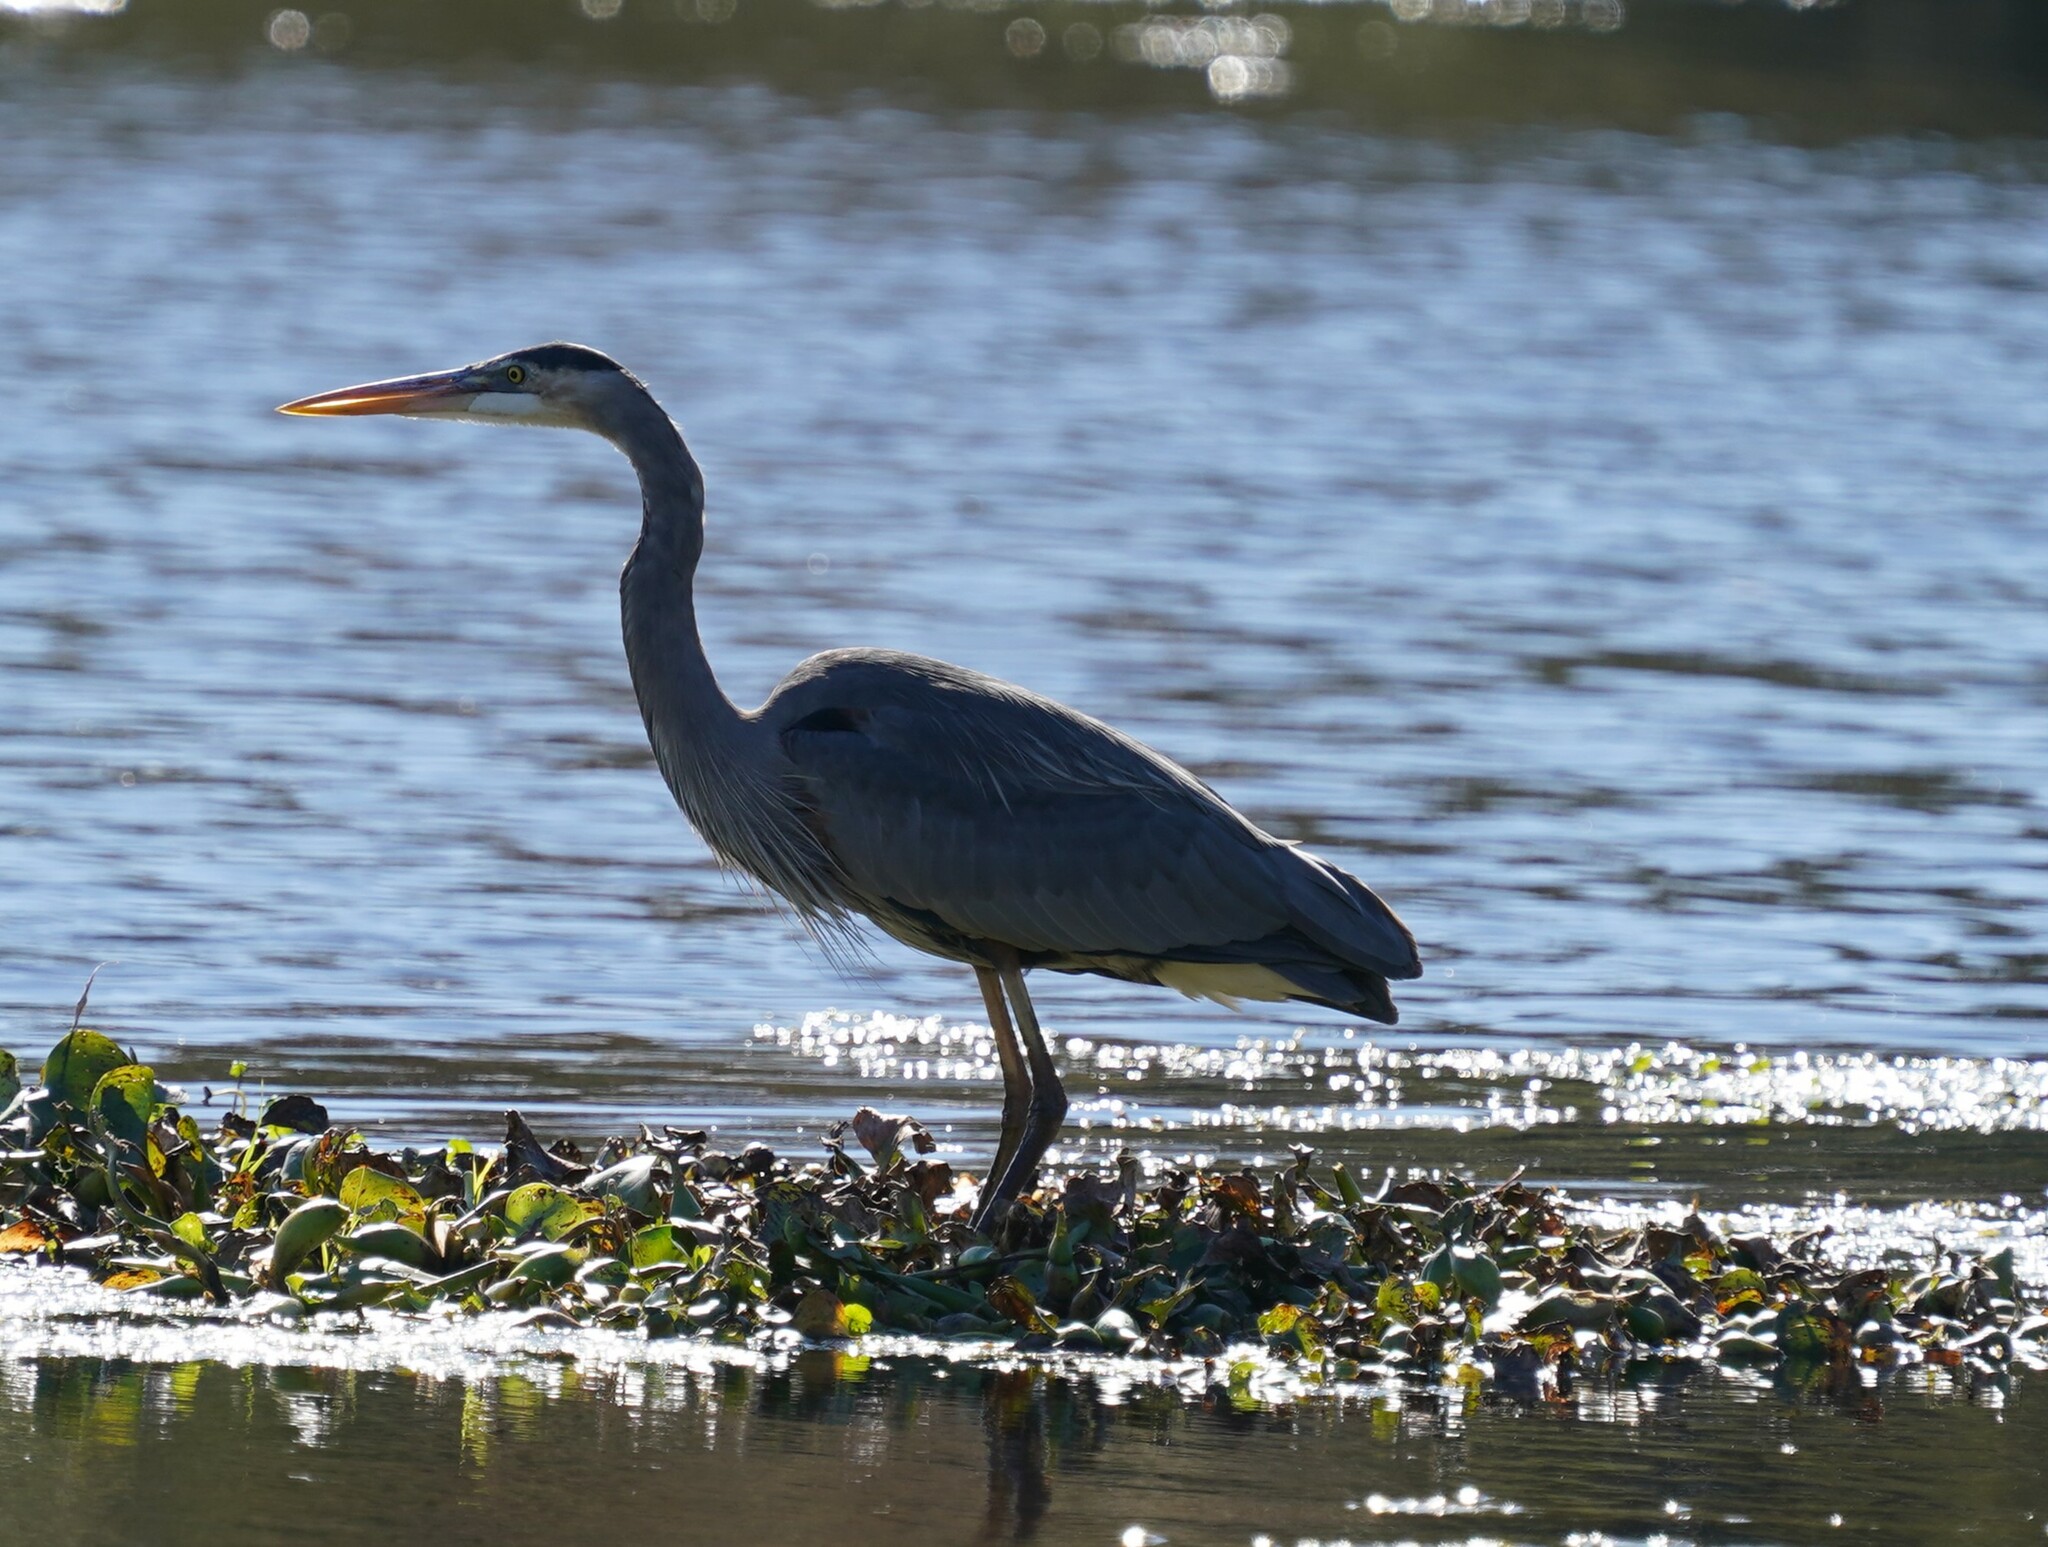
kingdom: Animalia
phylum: Chordata
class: Aves
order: Pelecaniformes
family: Ardeidae
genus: Ardea
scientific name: Ardea herodias
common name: Great blue heron
